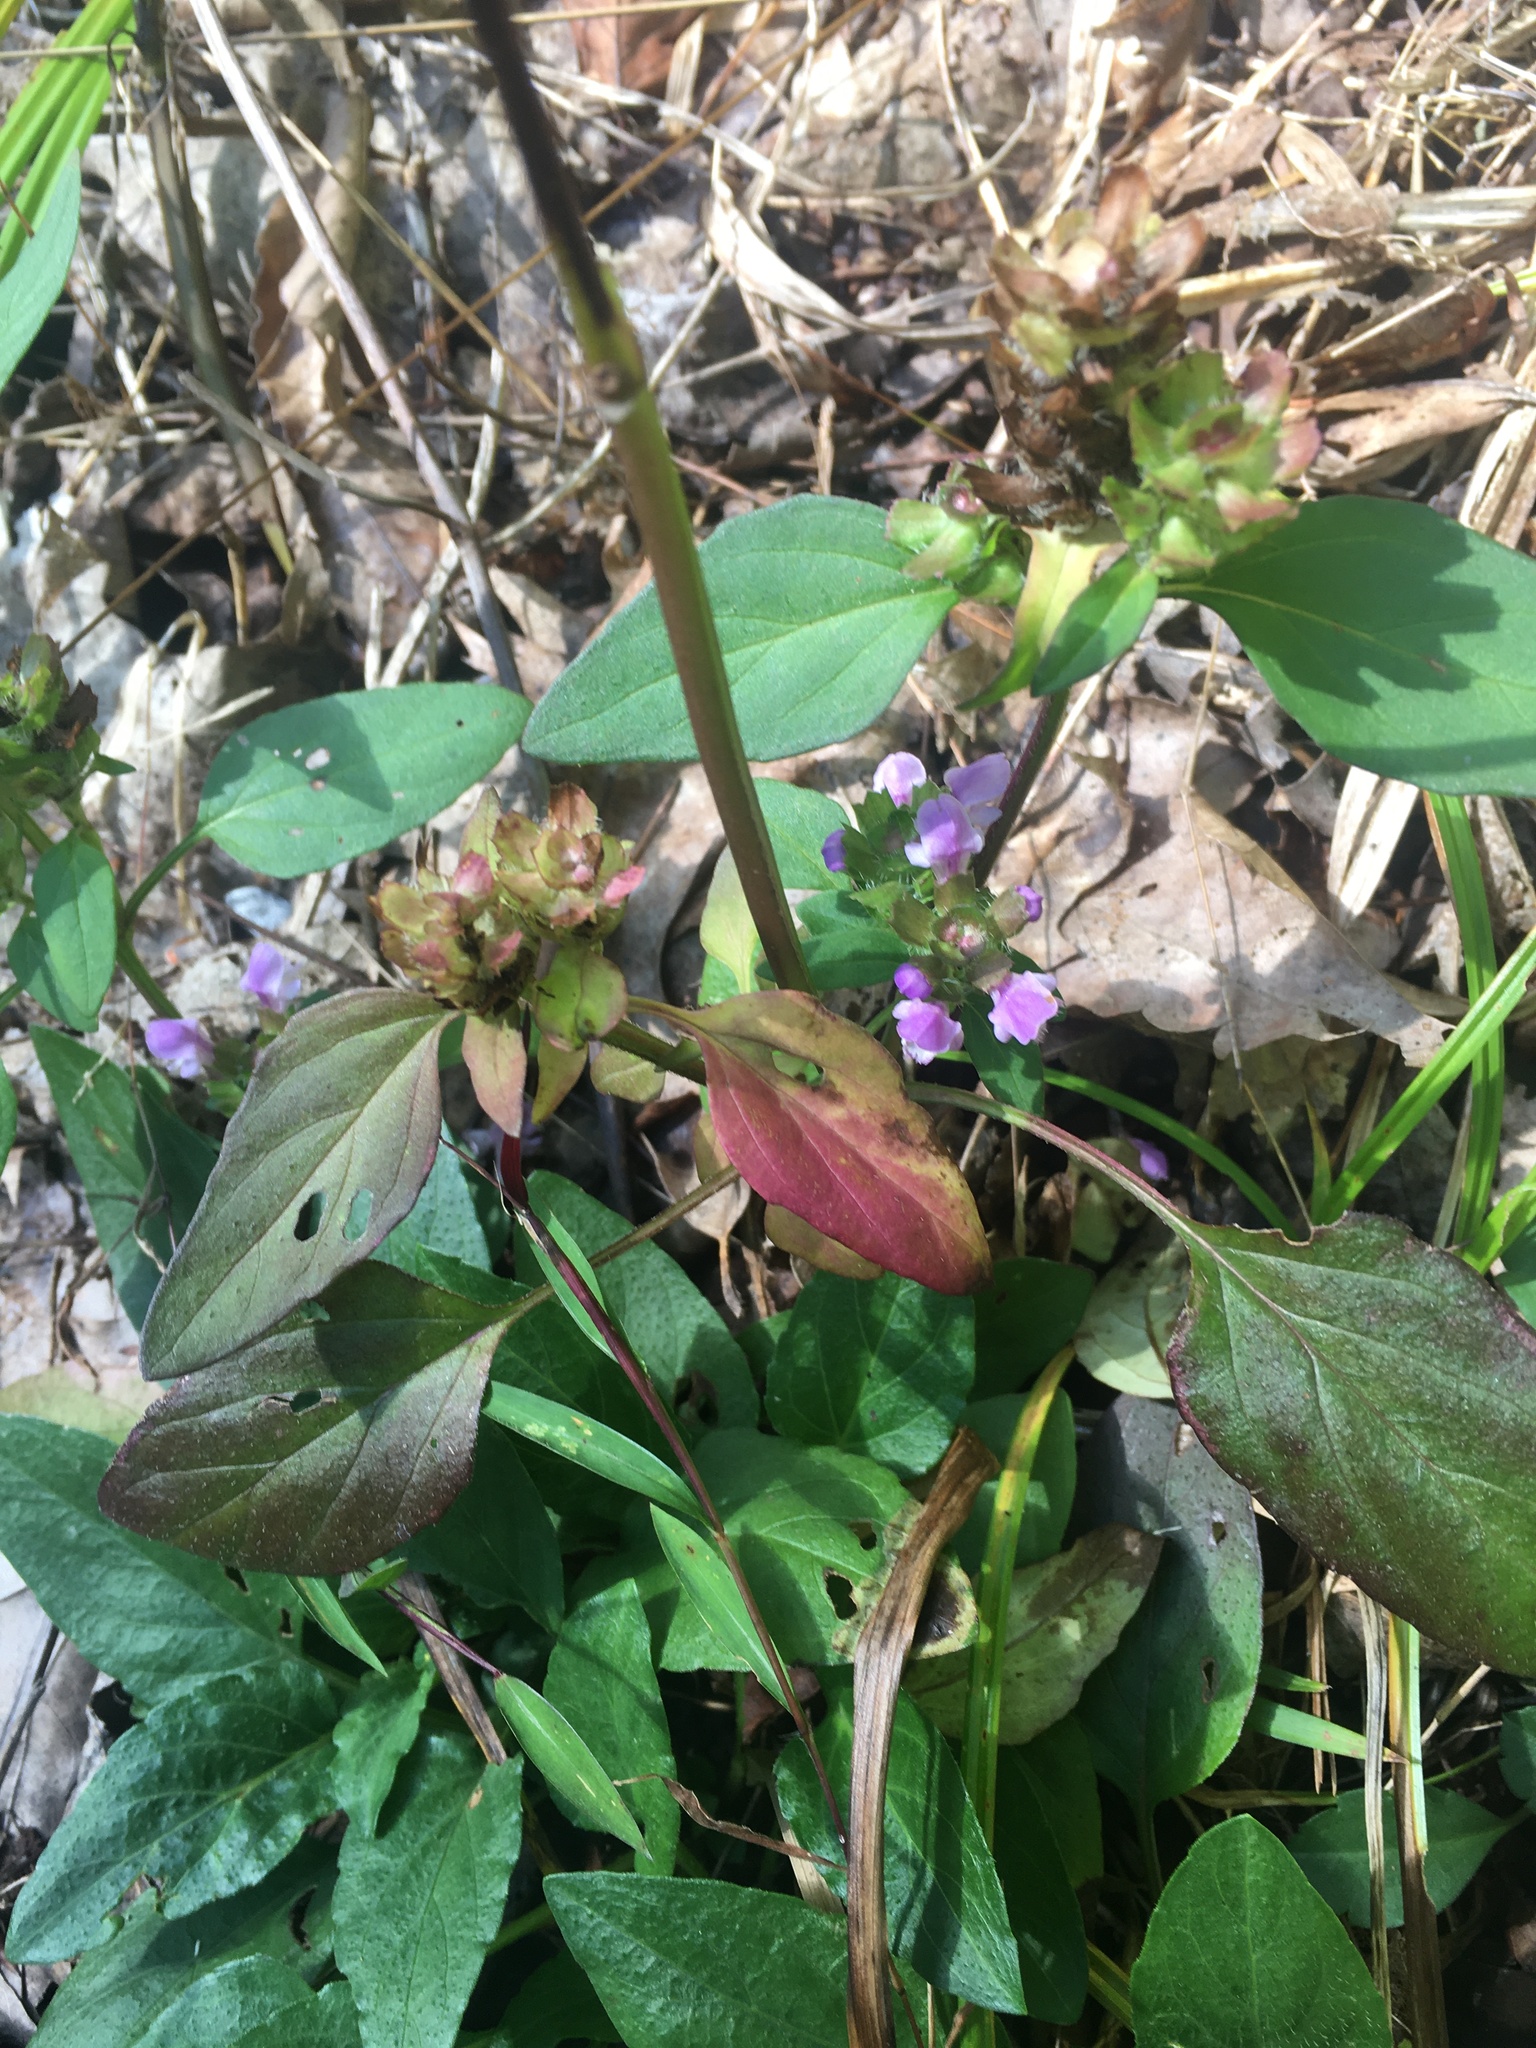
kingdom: Plantae
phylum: Tracheophyta
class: Magnoliopsida
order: Lamiales
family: Lamiaceae
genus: Prunella
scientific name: Prunella vulgaris
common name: Heal-all
